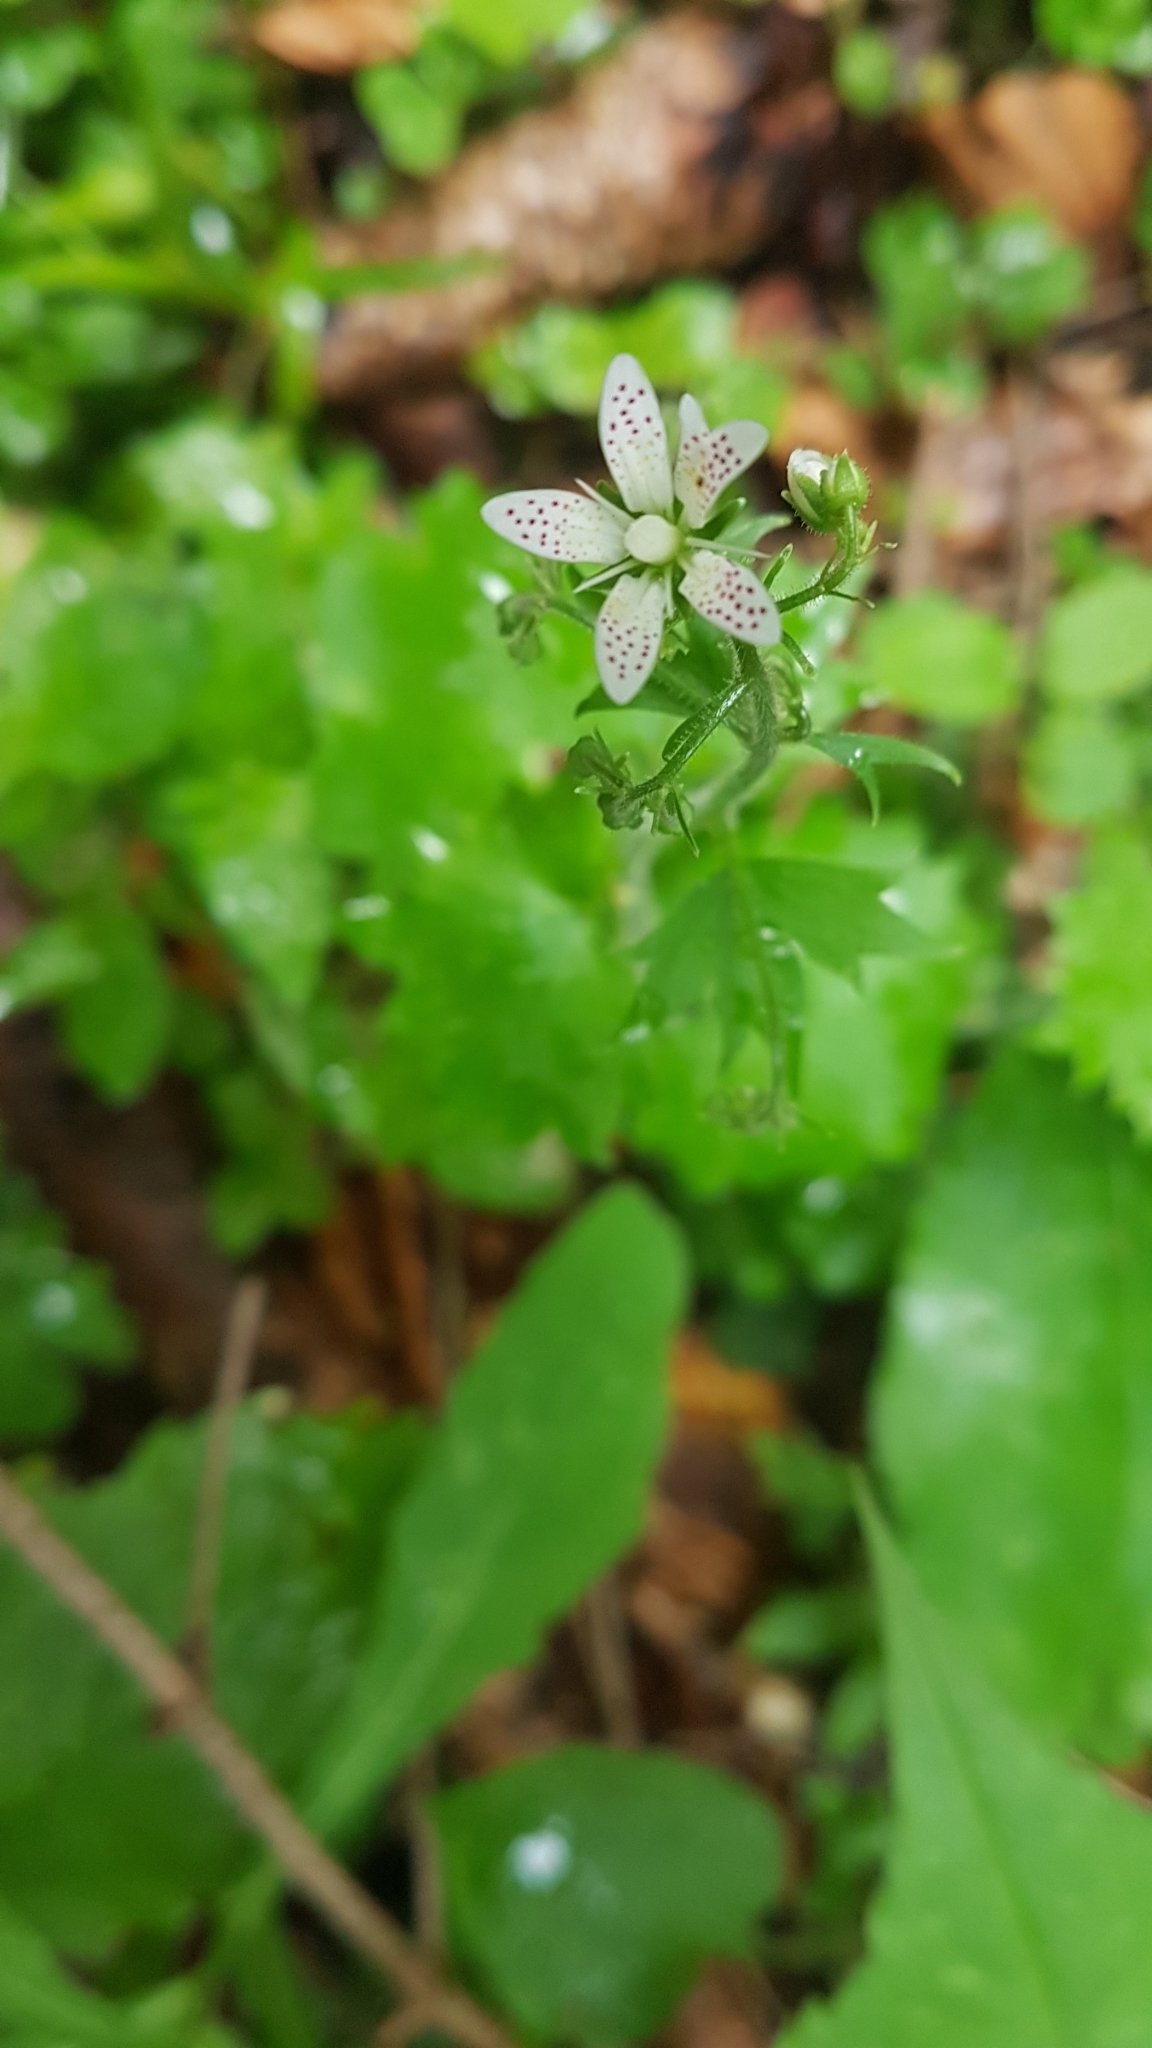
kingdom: Plantae
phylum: Tracheophyta
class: Magnoliopsida
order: Saxifragales
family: Saxifragaceae
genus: Saxifraga
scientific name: Saxifraga rotundifolia
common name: Round-leaved saxifrage
